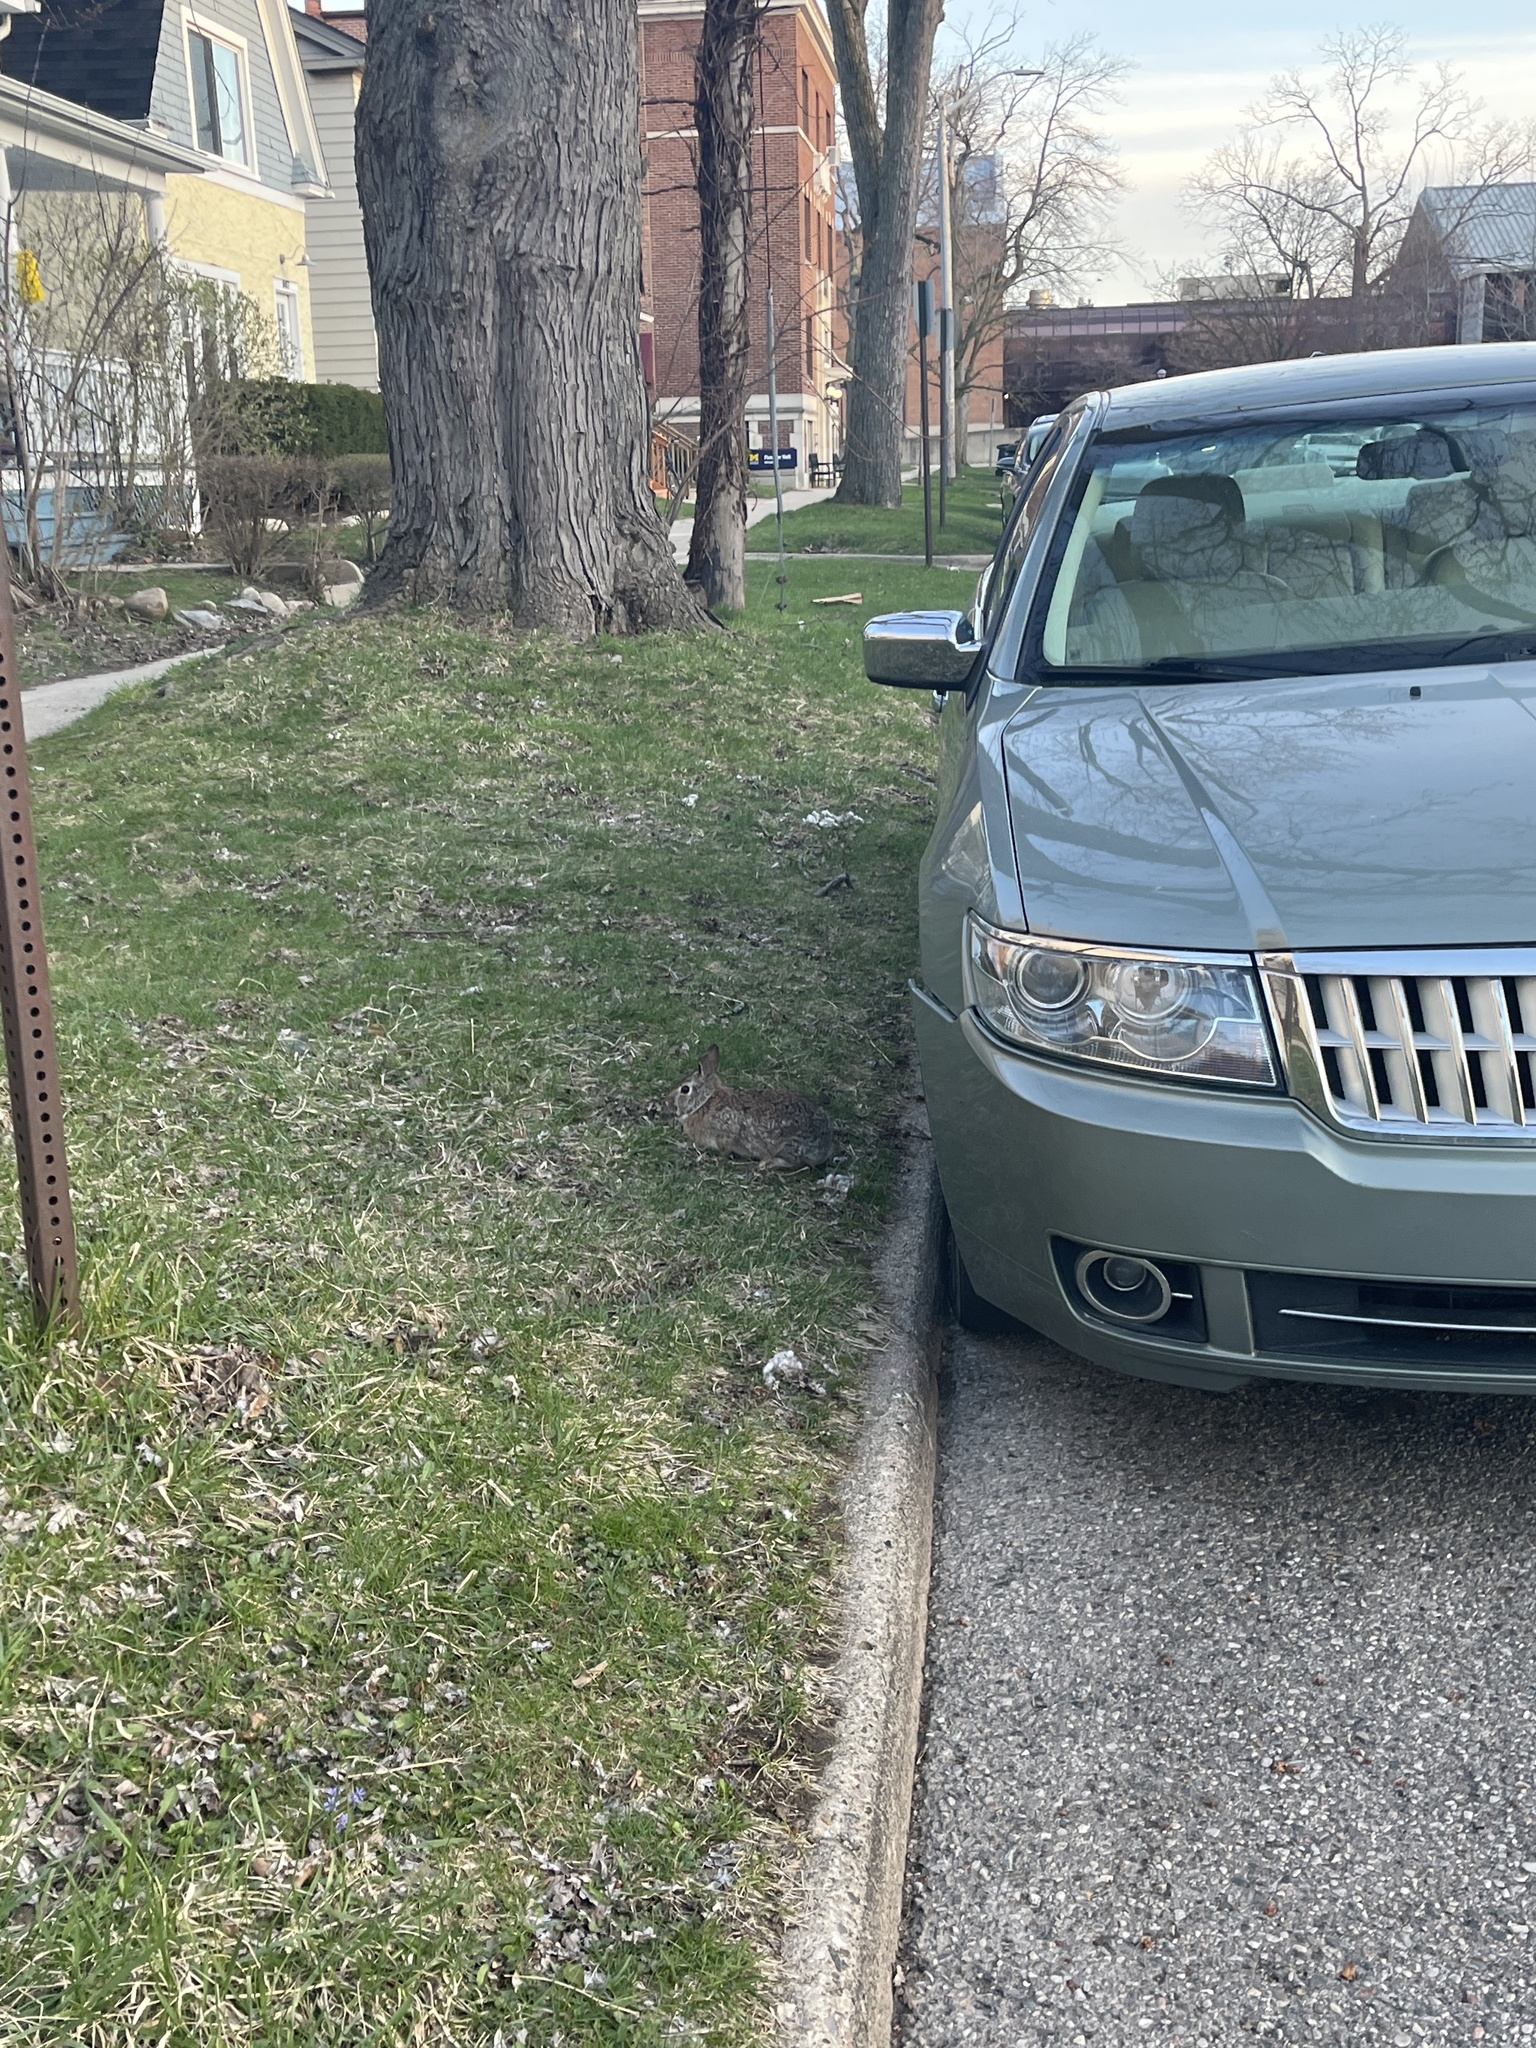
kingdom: Animalia
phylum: Chordata
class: Mammalia
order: Lagomorpha
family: Leporidae
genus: Sylvilagus
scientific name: Sylvilagus floridanus
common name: Eastern cottontail
